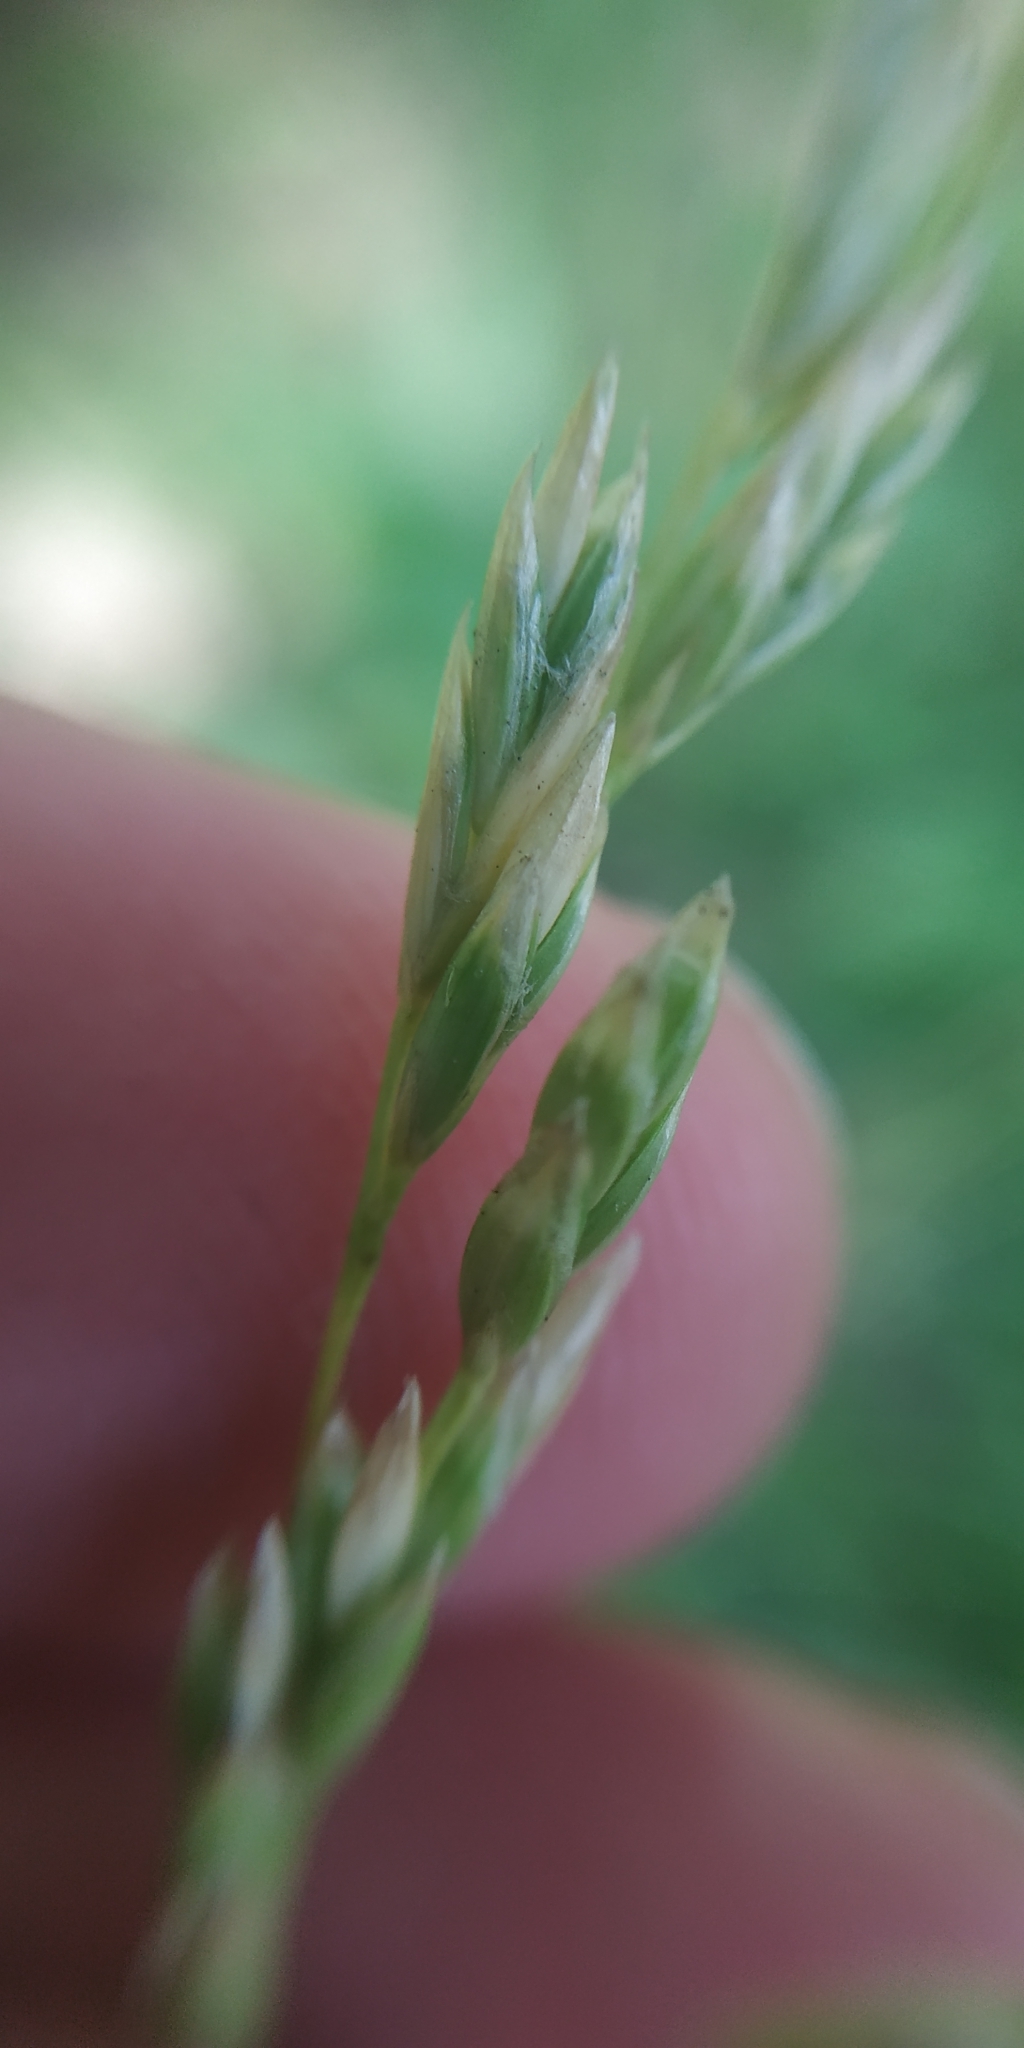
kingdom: Plantae
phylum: Tracheophyta
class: Liliopsida
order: Poales
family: Poaceae
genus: Lolium
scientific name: Lolium pratense
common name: Dover grass
